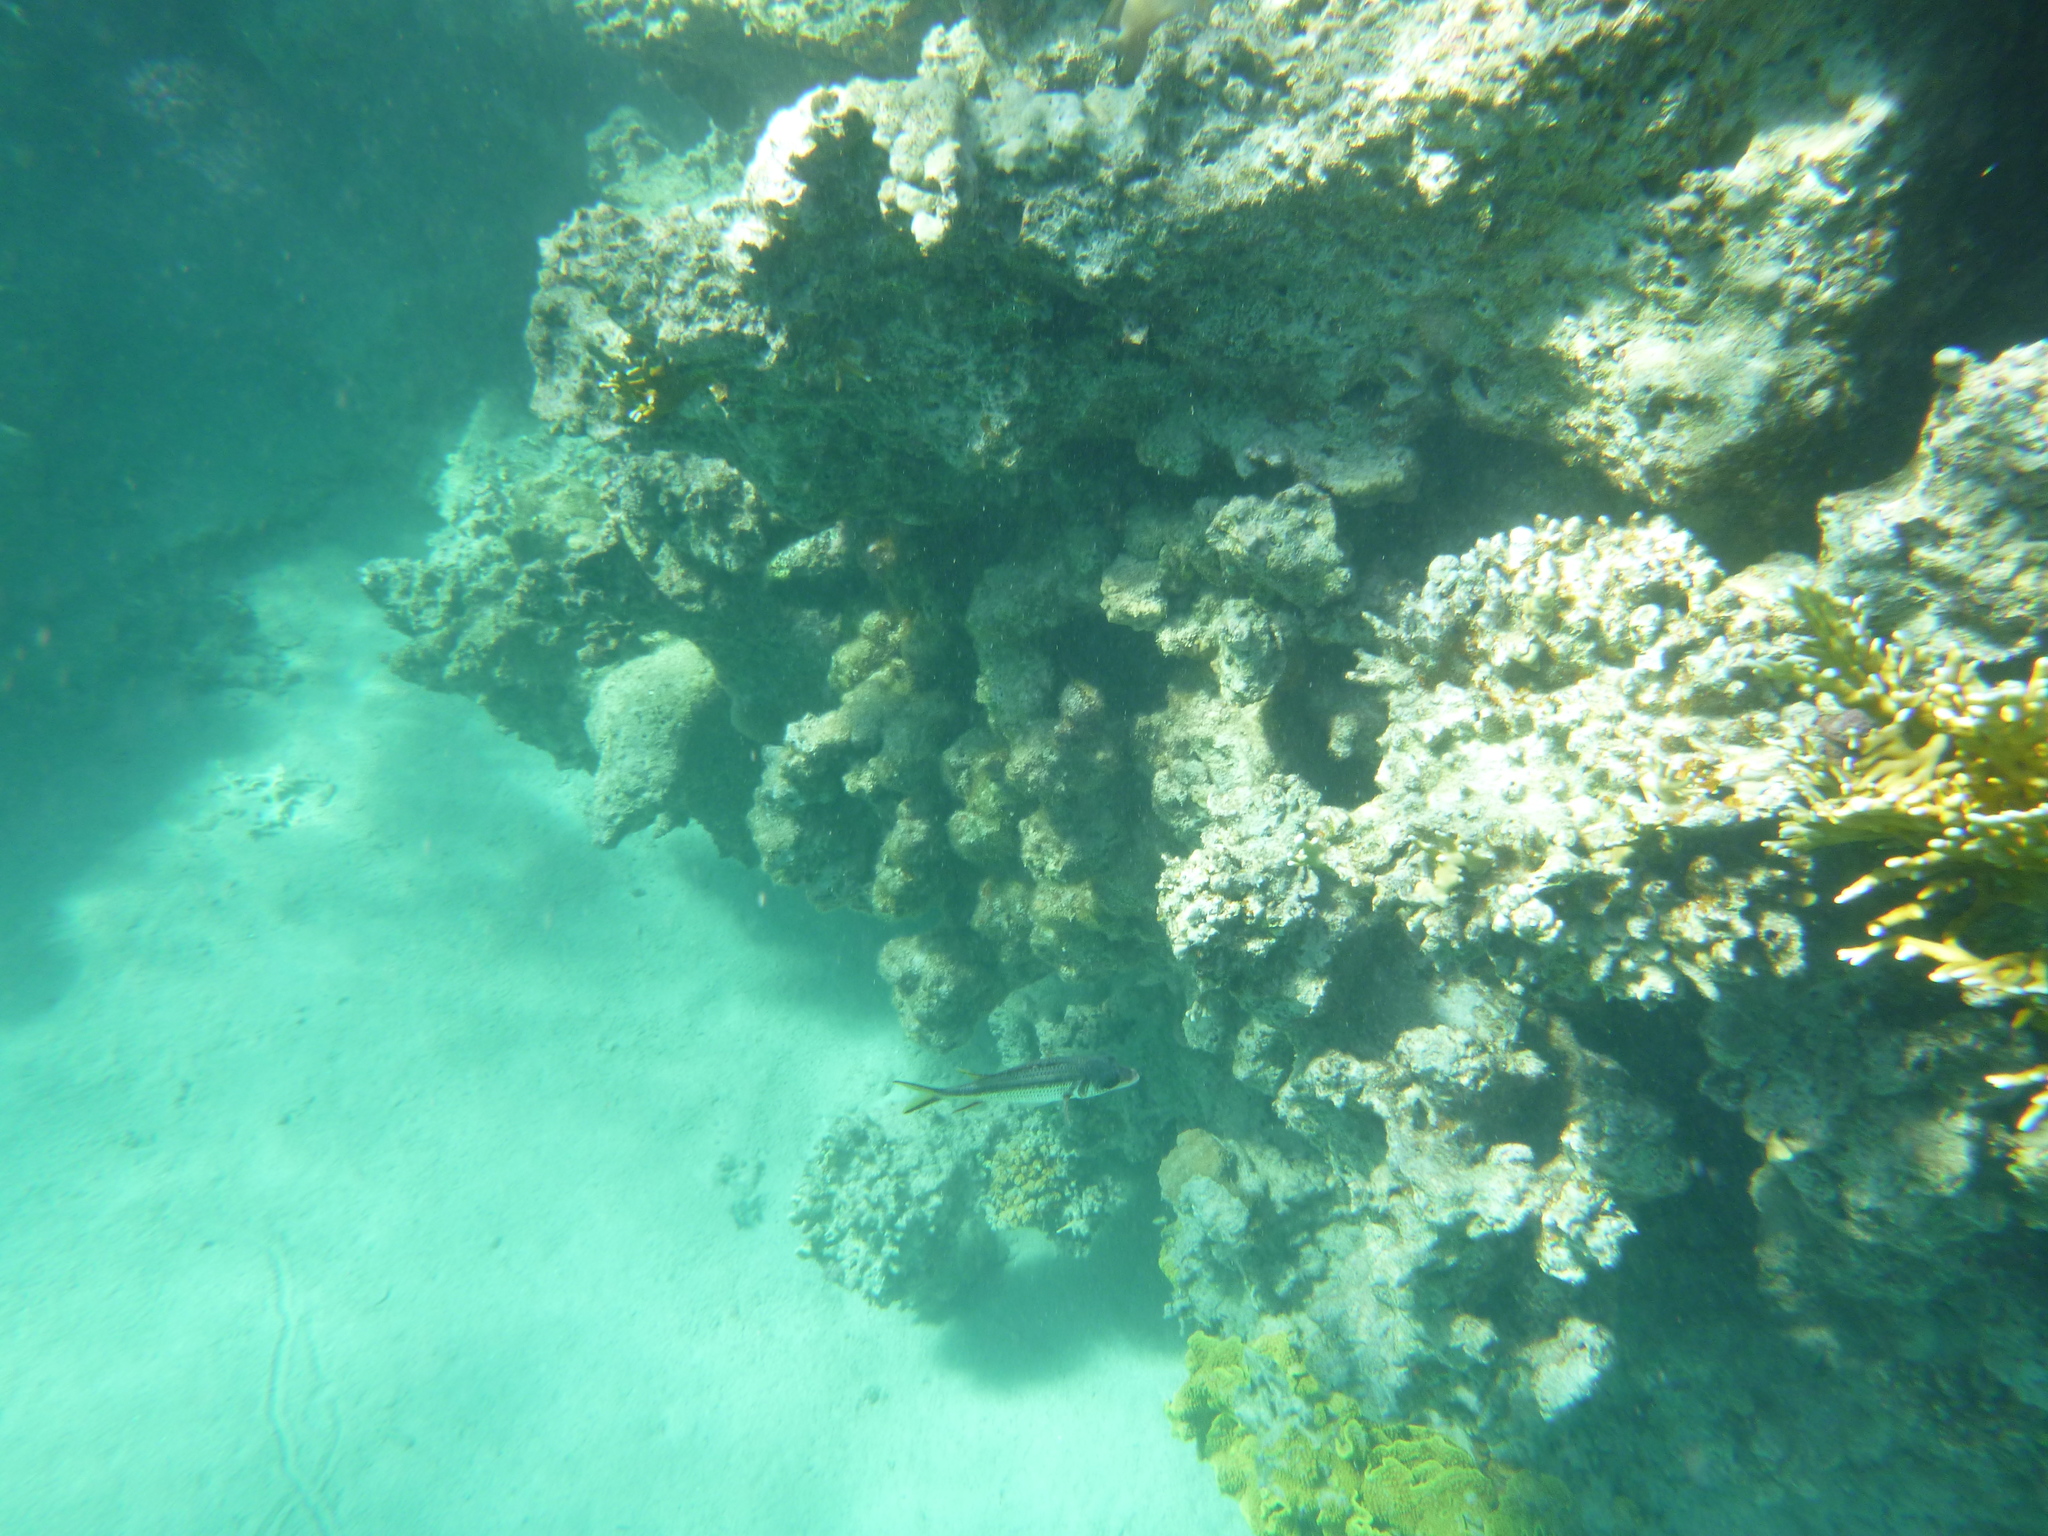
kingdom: Animalia
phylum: Chordata
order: Beryciformes
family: Holocentridae
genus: Neoniphon
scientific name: Neoniphon sammara
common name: Sammara squirrelfish
